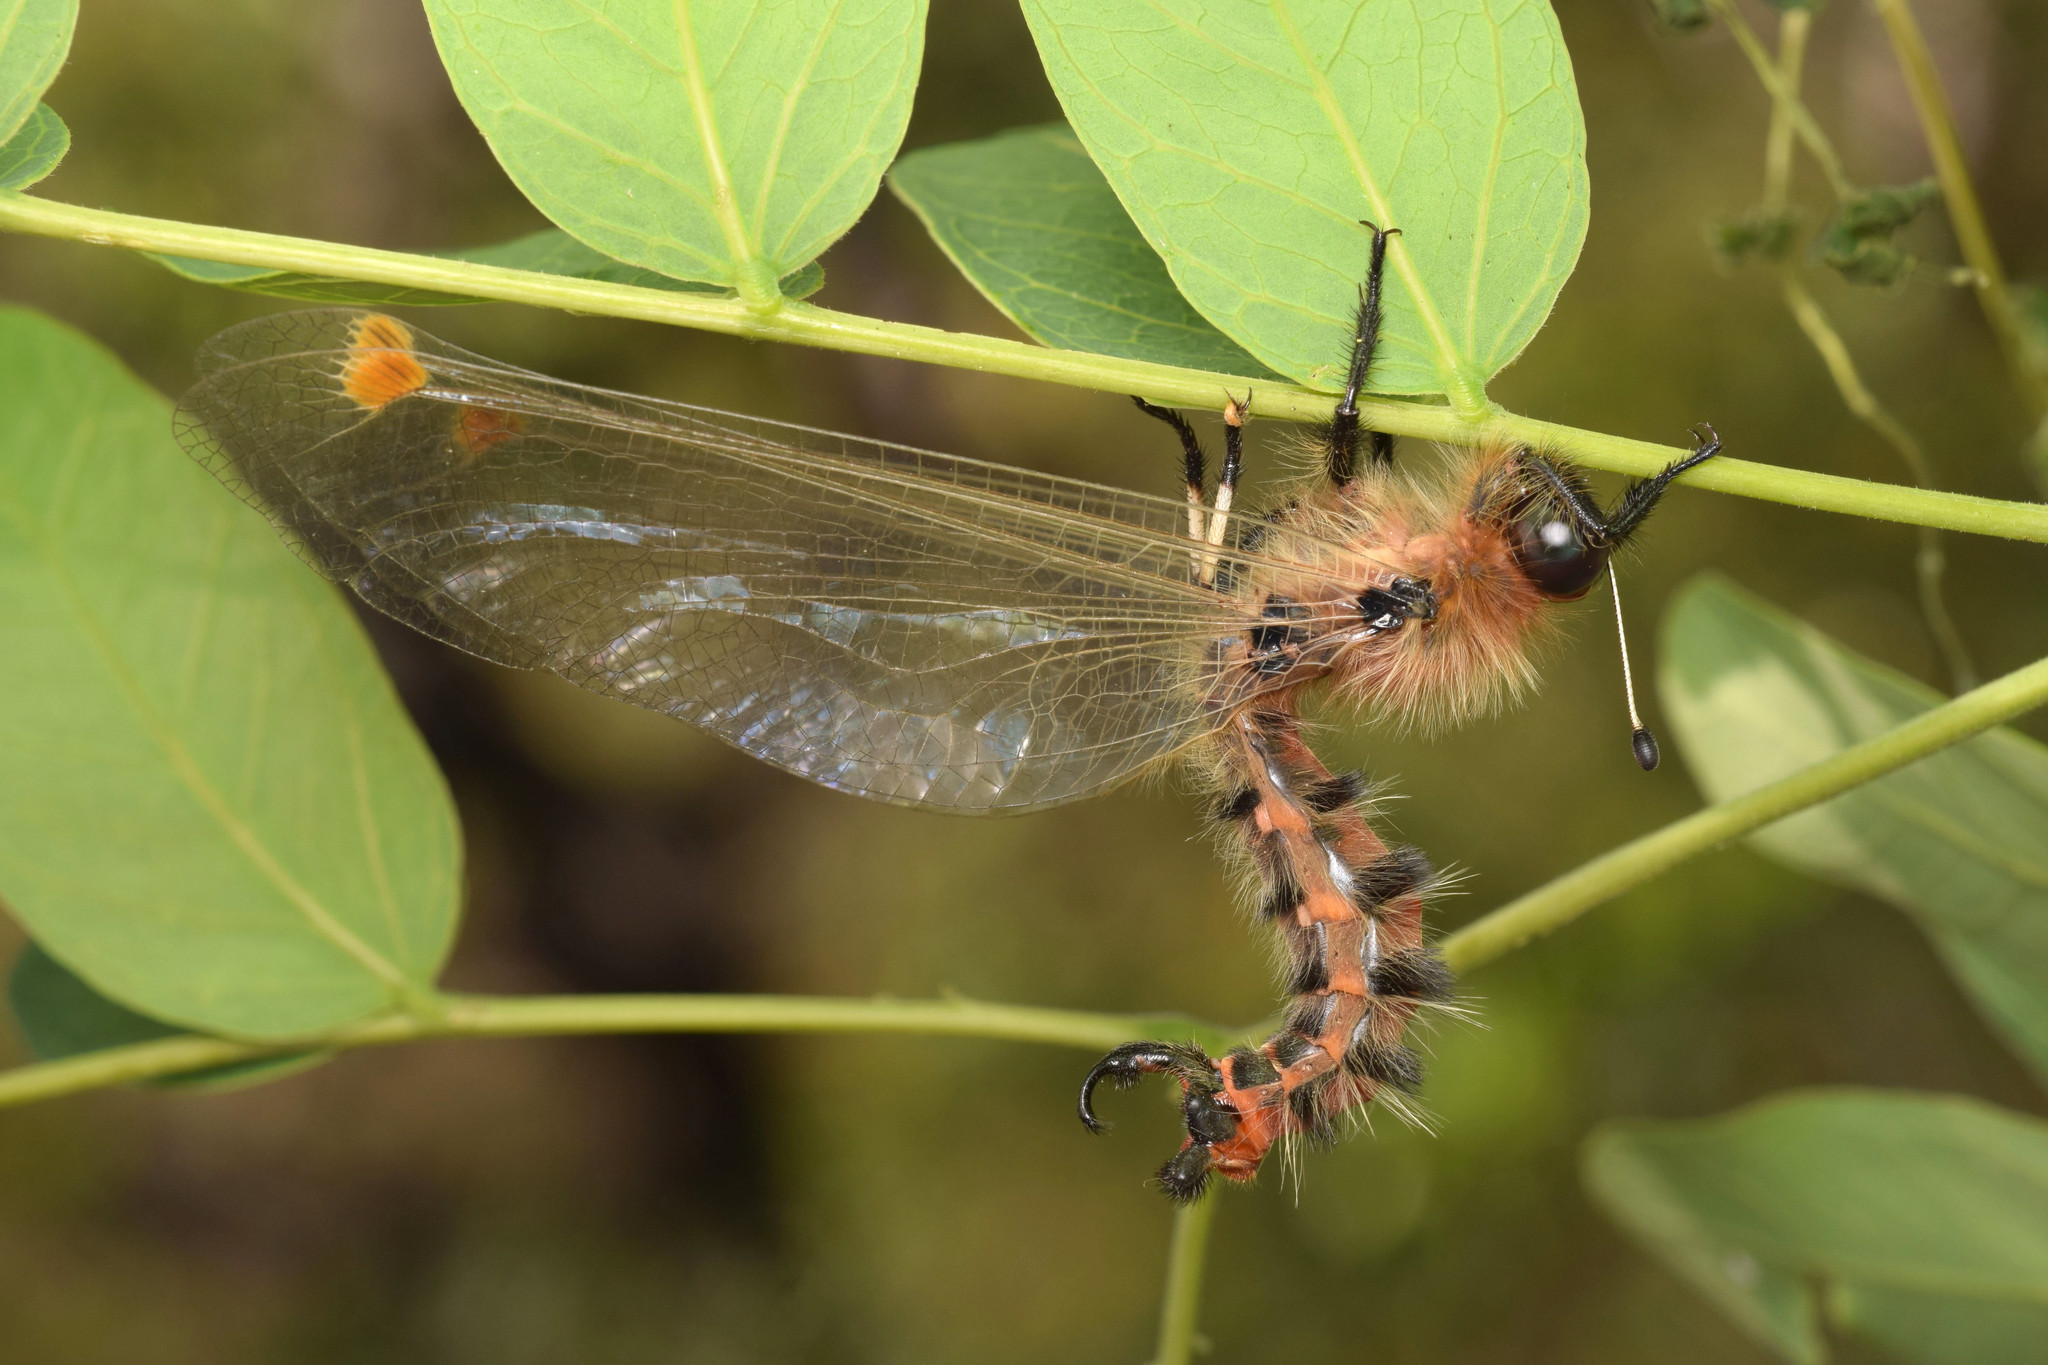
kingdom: Animalia
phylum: Arthropoda
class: Insecta
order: Neuroptera
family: Ascalaphidae
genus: Albardia
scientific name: Albardia furcata
